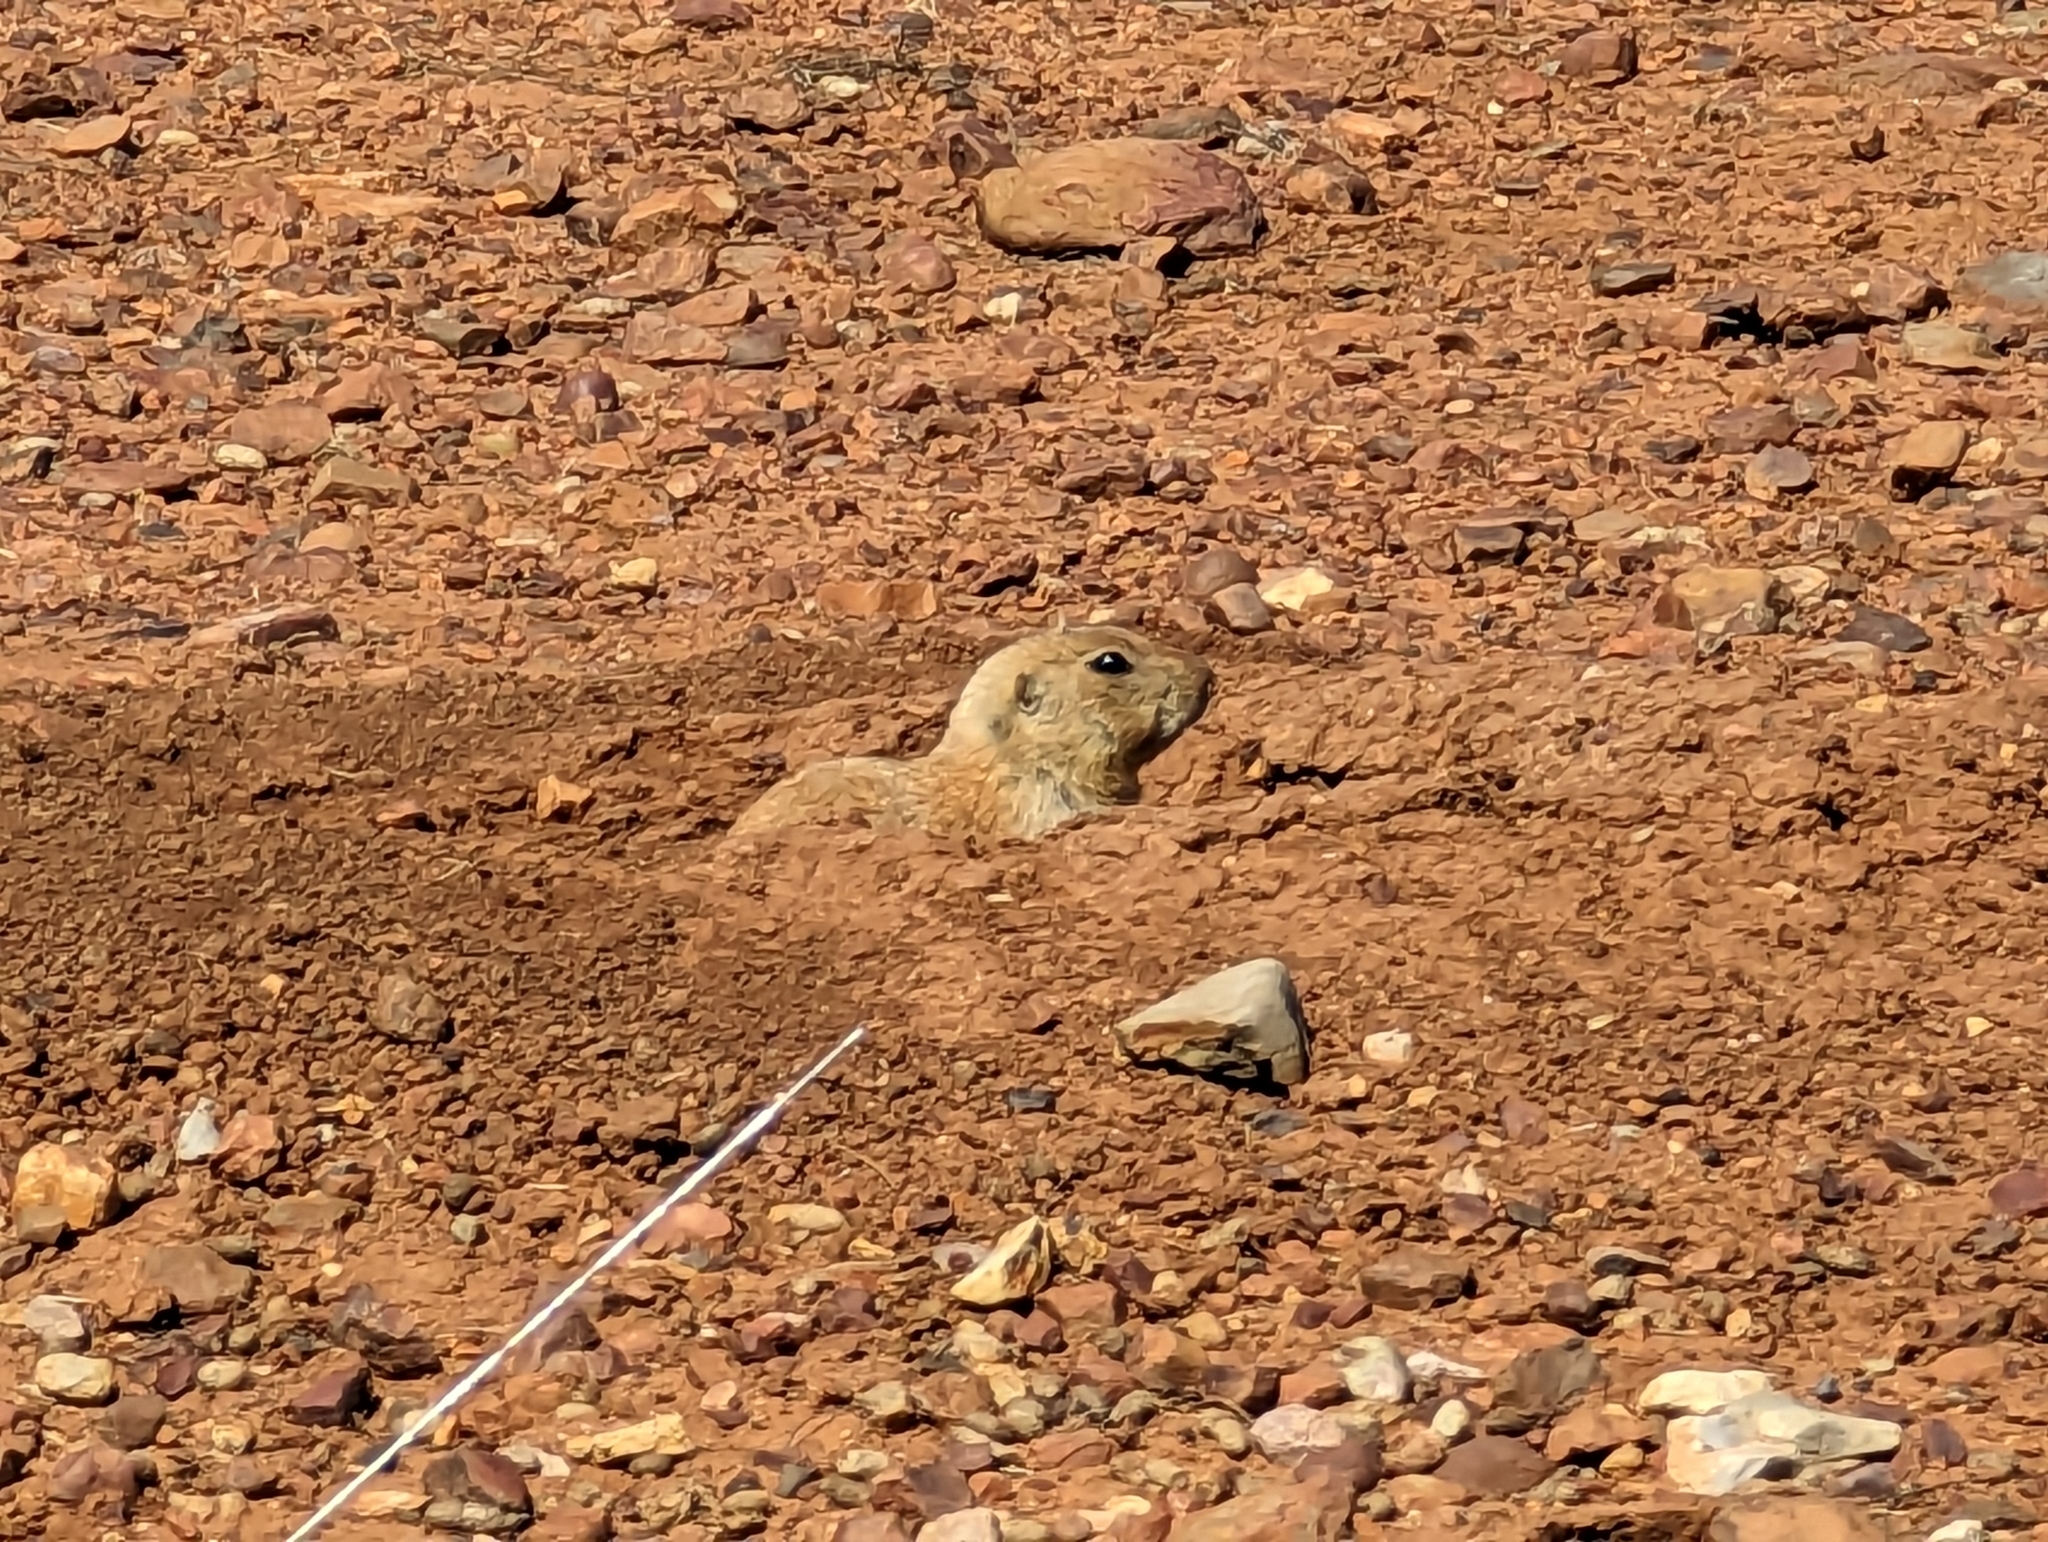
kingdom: Animalia
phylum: Chordata
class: Mammalia
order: Rodentia
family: Sciuridae
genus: Cynomys
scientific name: Cynomys ludovicianus
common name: Black-tailed prairie dog
